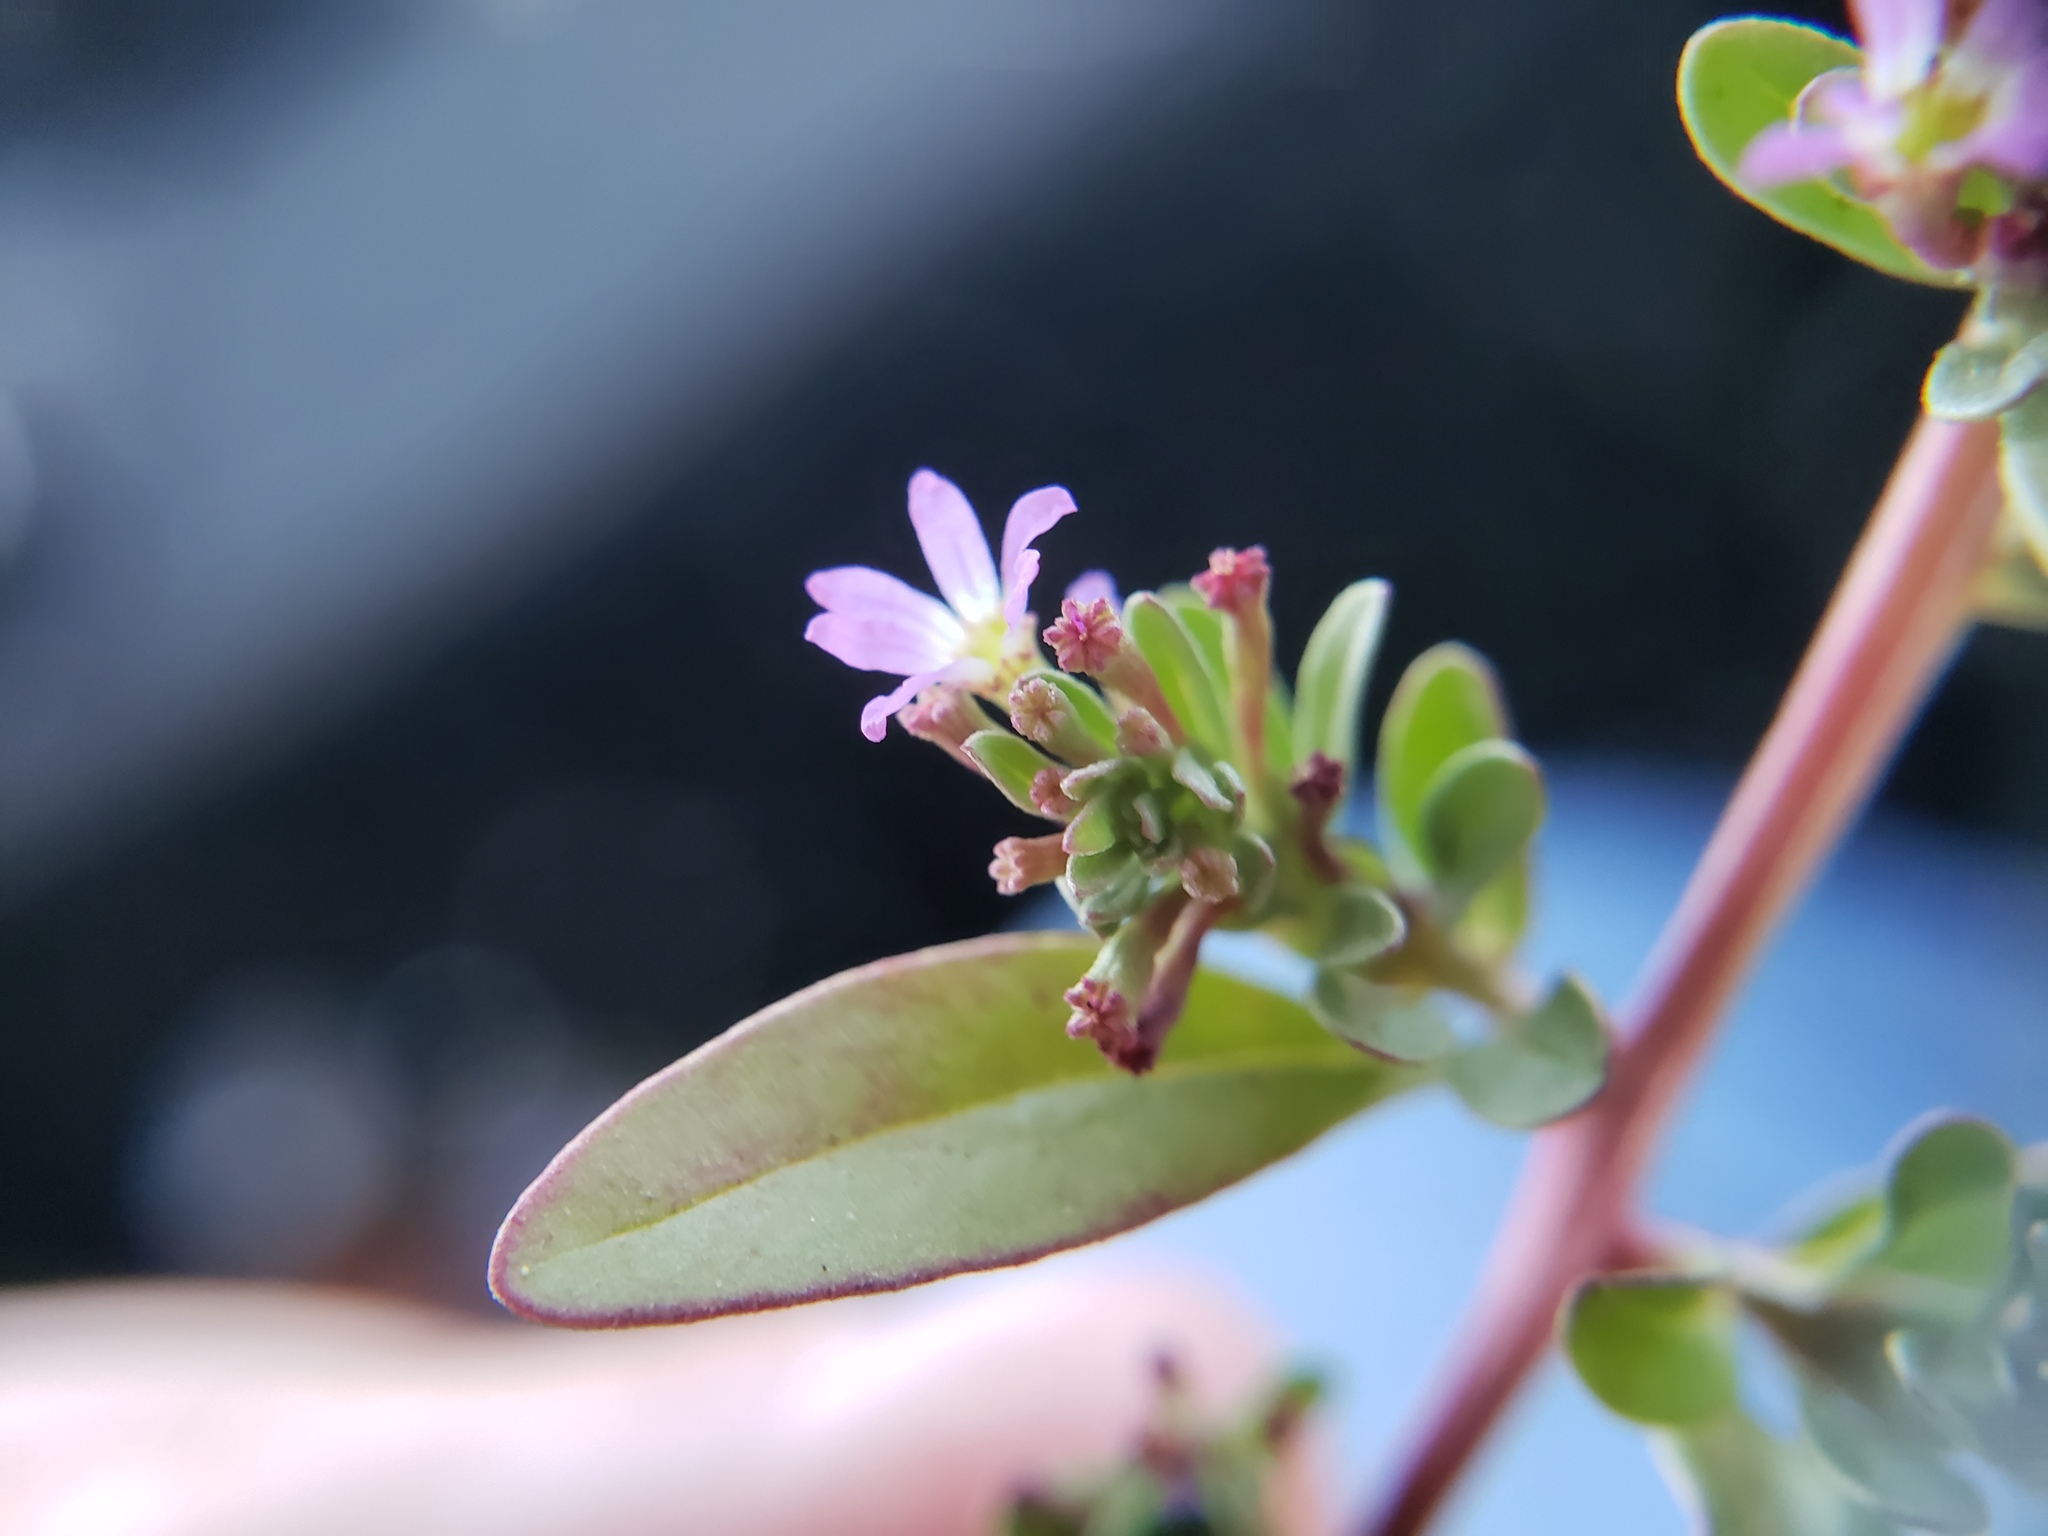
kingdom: Plantae
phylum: Tracheophyta
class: Magnoliopsida
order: Myrtales
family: Lythraceae
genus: Lythrum
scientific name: Lythrum tribracteatum
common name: Threebract loosestrife
